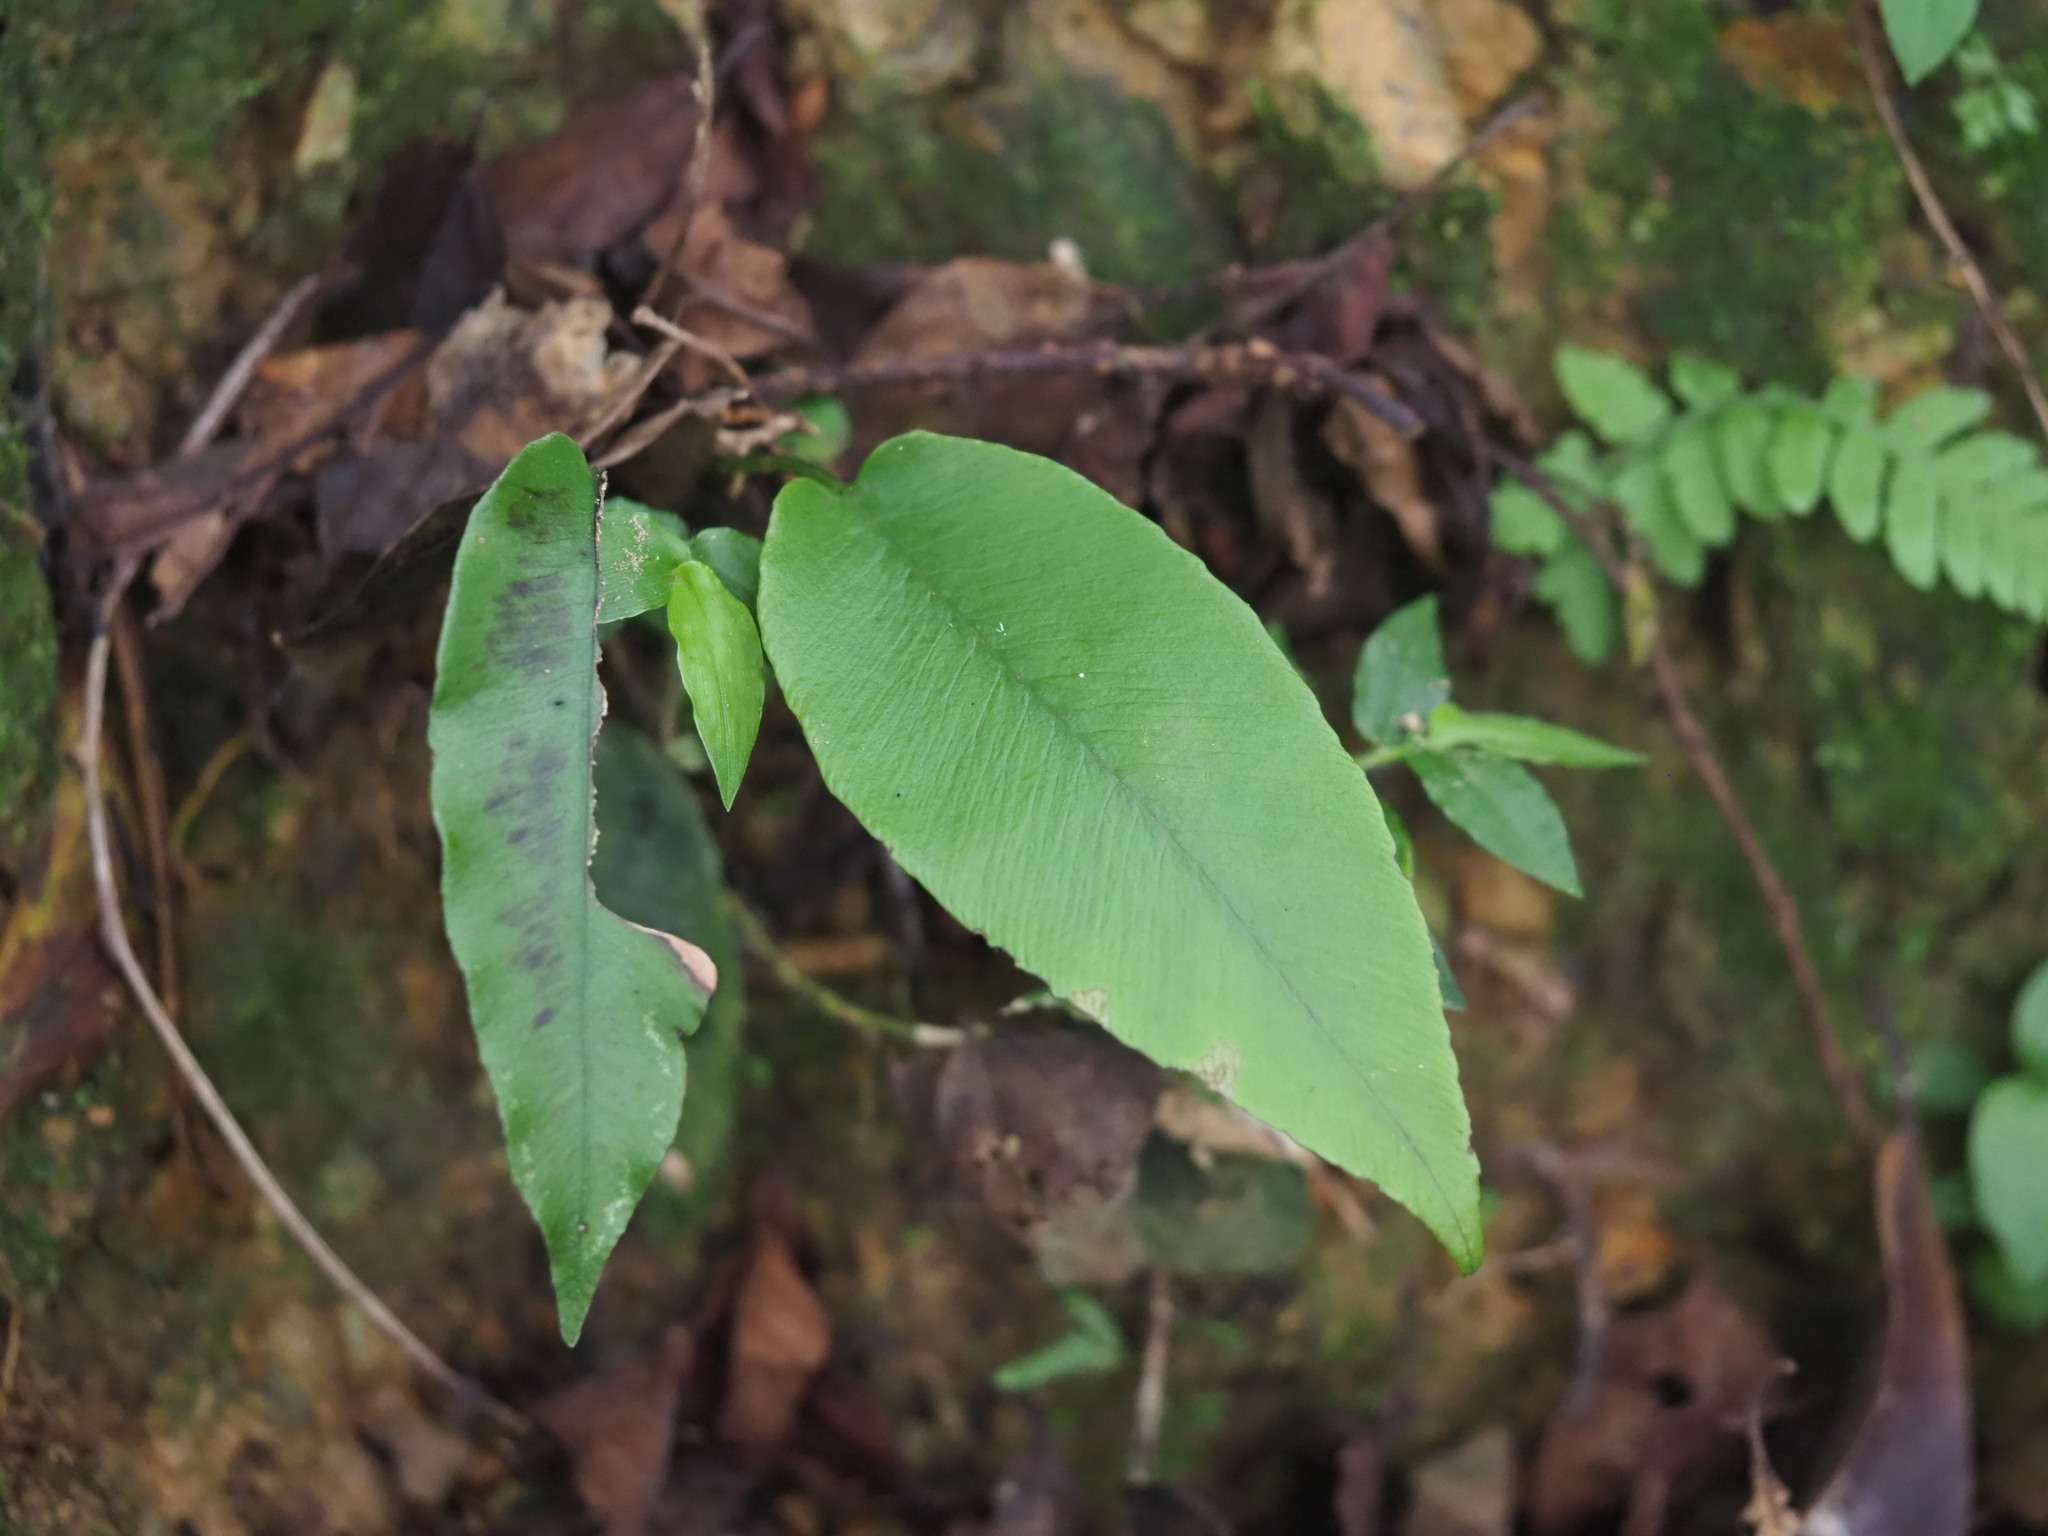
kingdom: Plantae
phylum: Tracheophyta
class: Polypodiopsida
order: Polypodiales
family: Athyriaceae
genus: Diplazium
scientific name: Diplazium lineolatum
